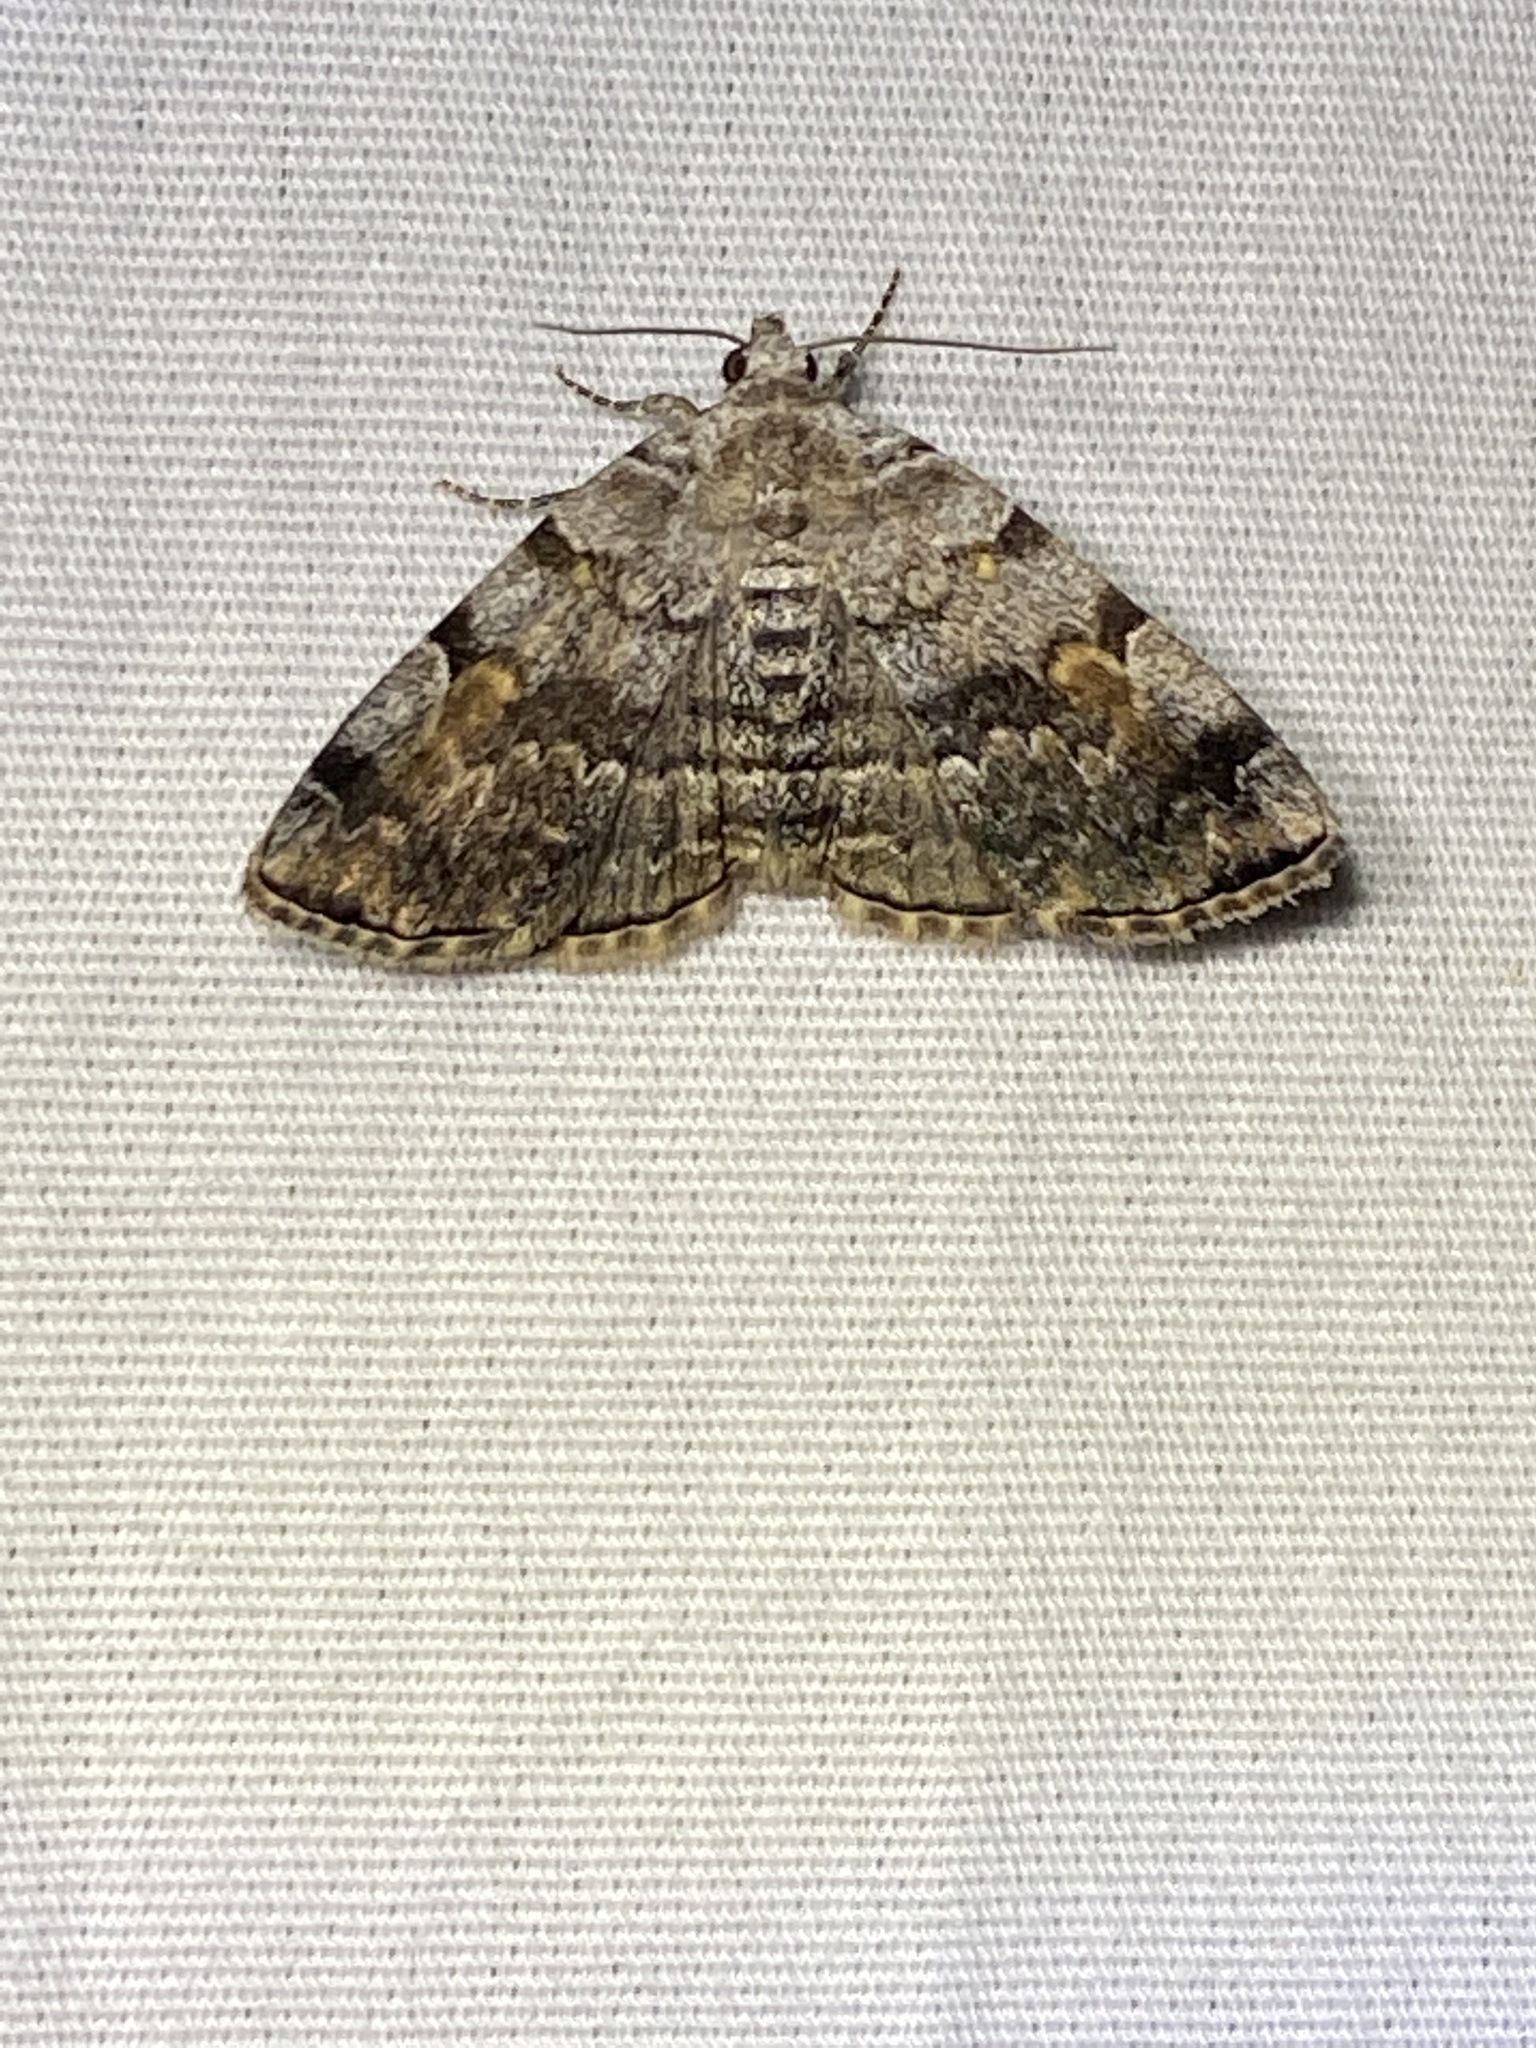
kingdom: Animalia
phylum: Arthropoda
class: Insecta
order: Lepidoptera
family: Erebidae
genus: Idia
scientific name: Idia americalis
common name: American idia moth
